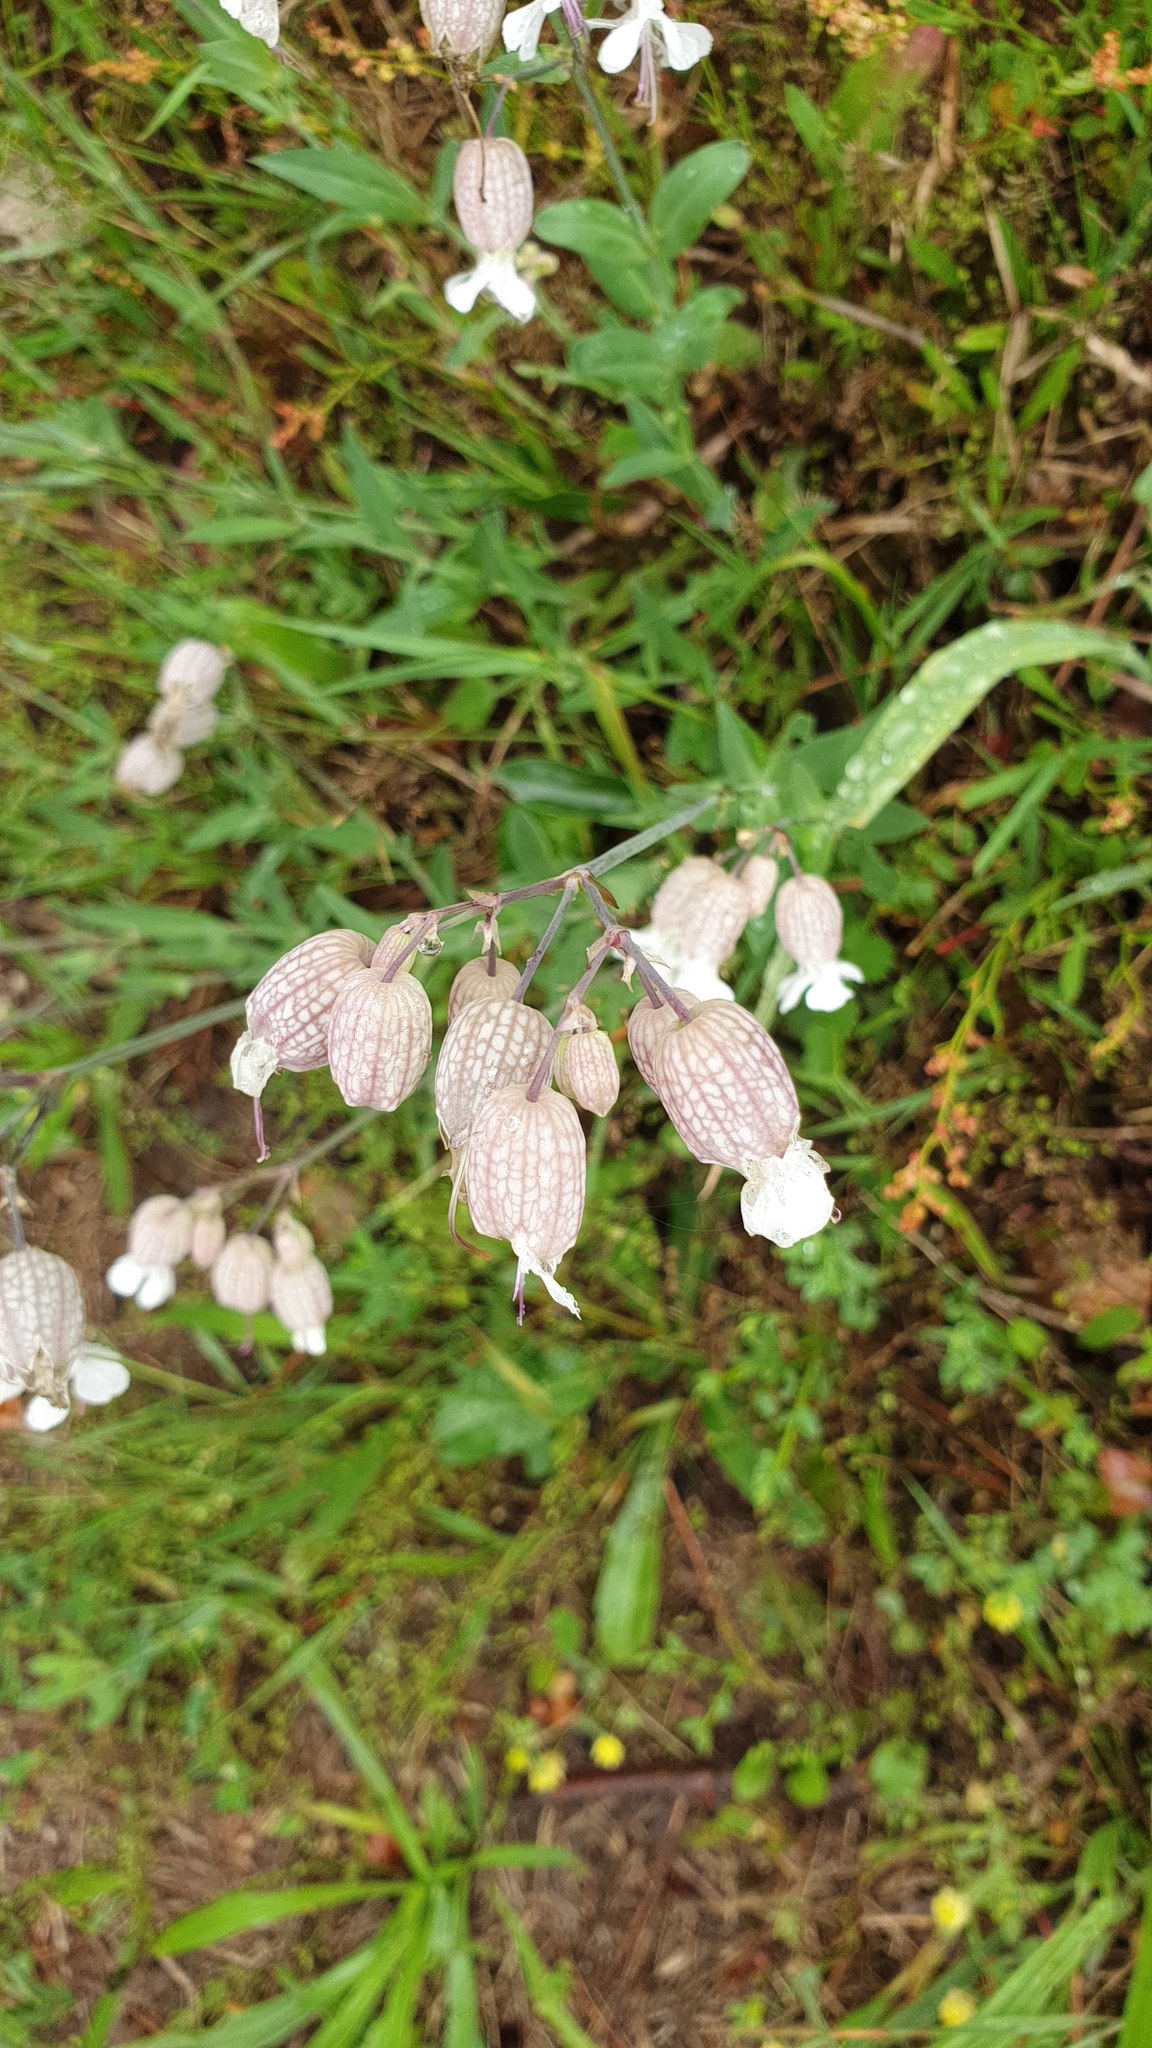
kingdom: Plantae
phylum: Tracheophyta
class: Magnoliopsida
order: Caryophyllales
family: Caryophyllaceae
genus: Silene
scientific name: Silene vulgaris
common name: Bladder campion
